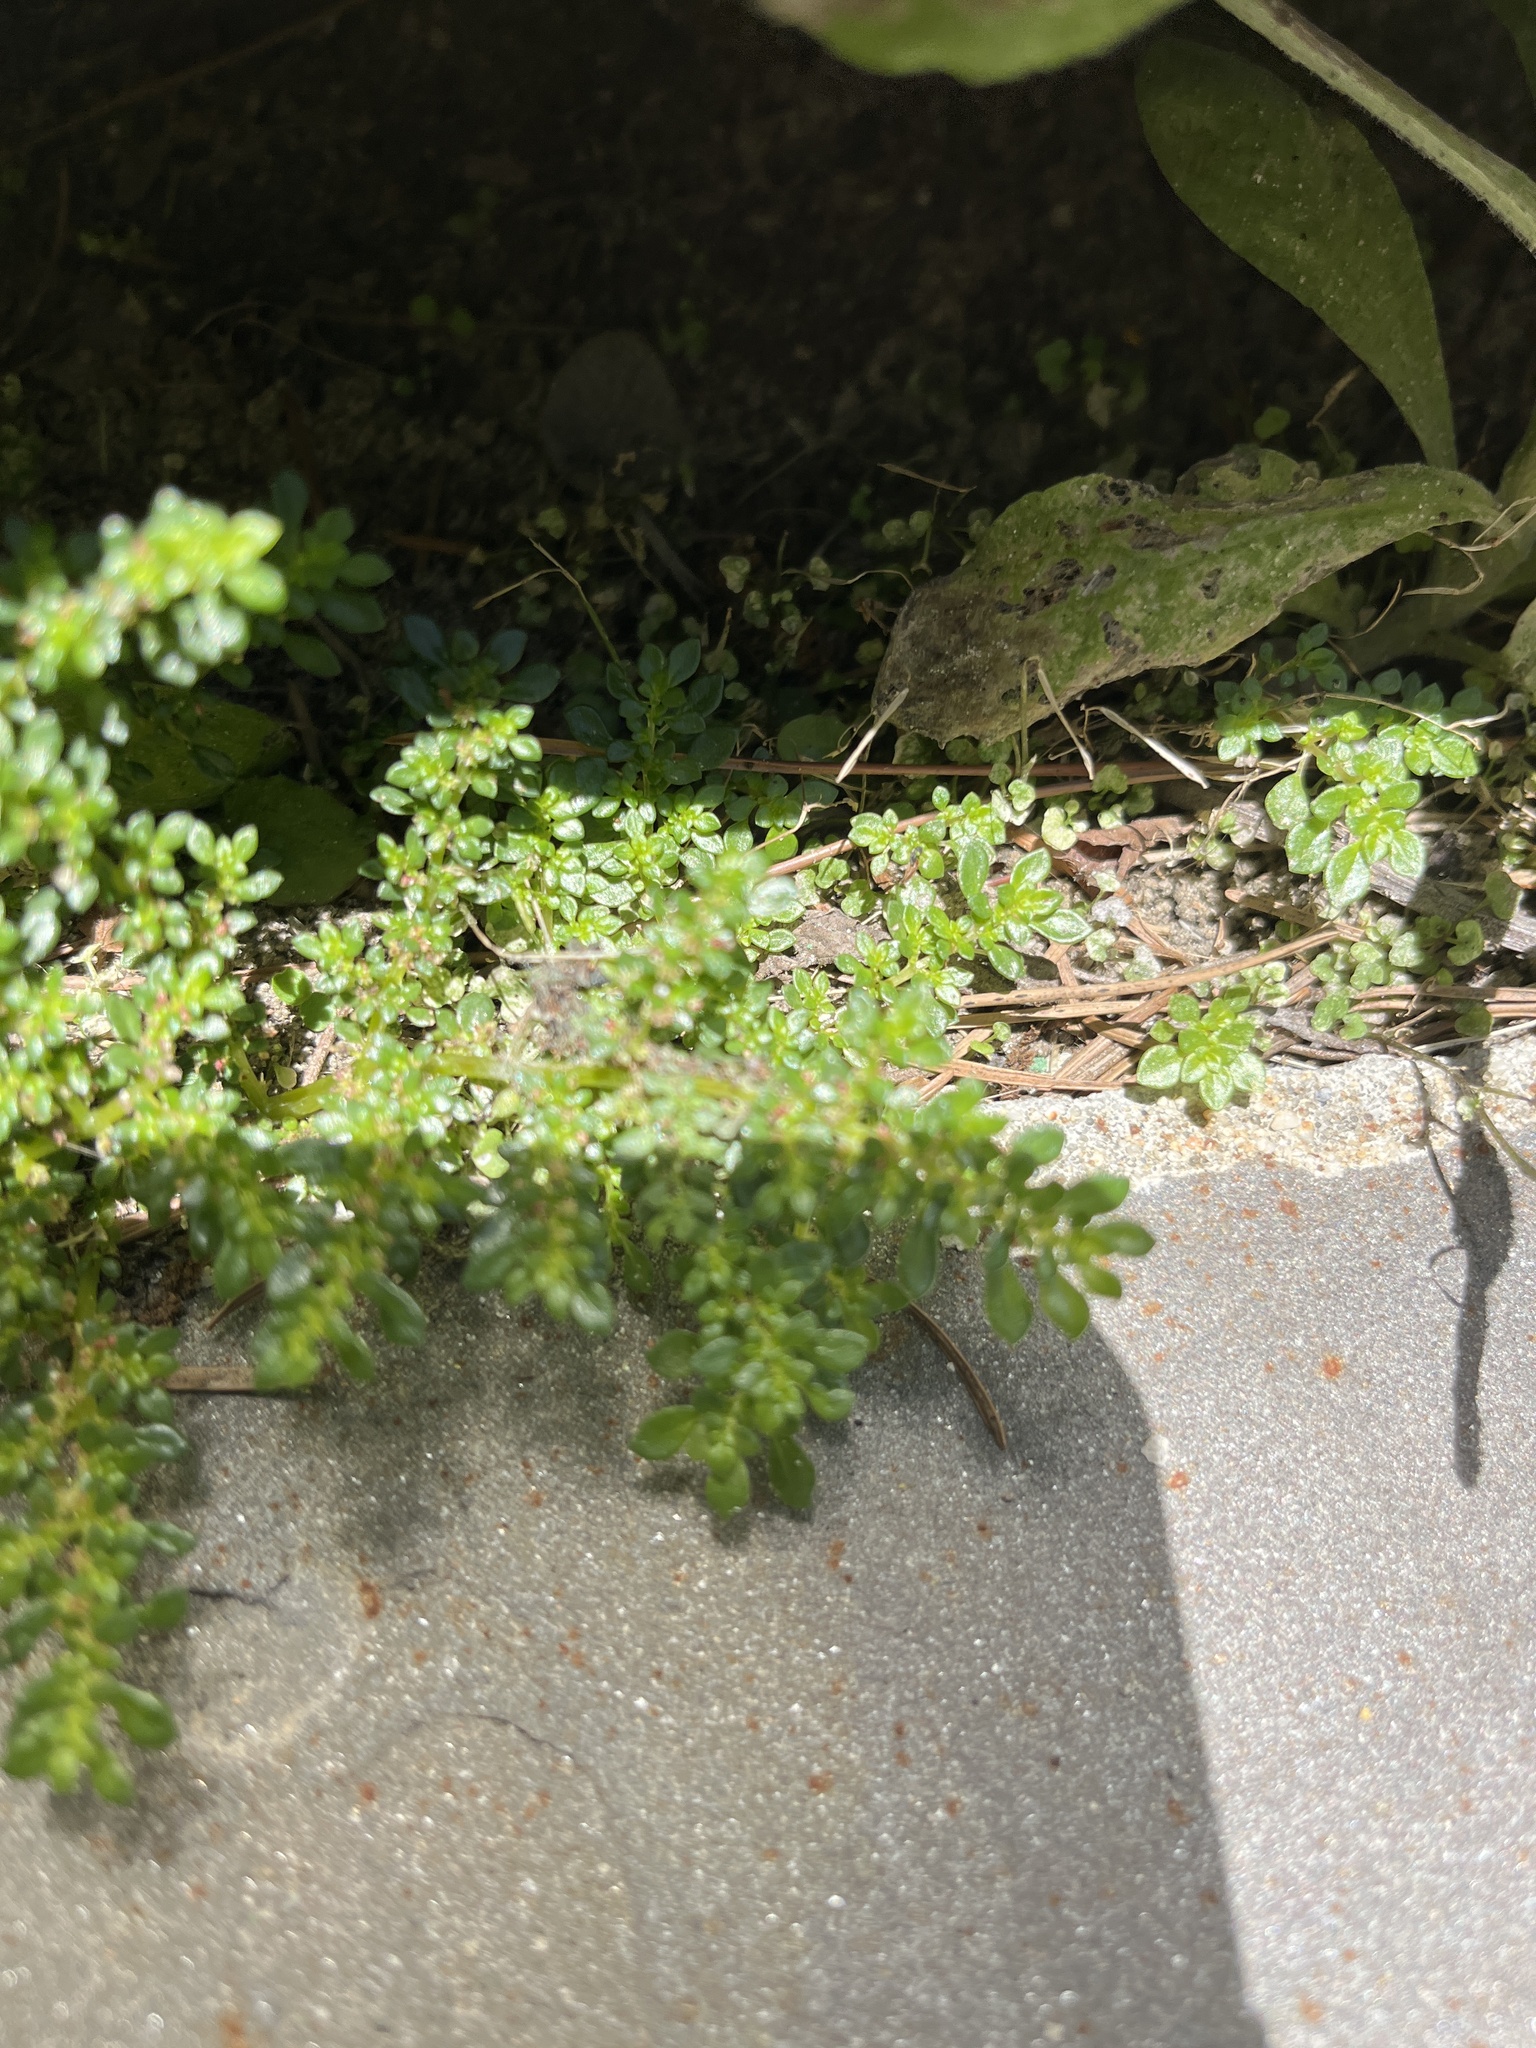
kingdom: Plantae
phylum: Tracheophyta
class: Magnoliopsida
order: Rosales
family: Urticaceae
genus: Pilea
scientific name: Pilea microphylla
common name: Artillery-plant
